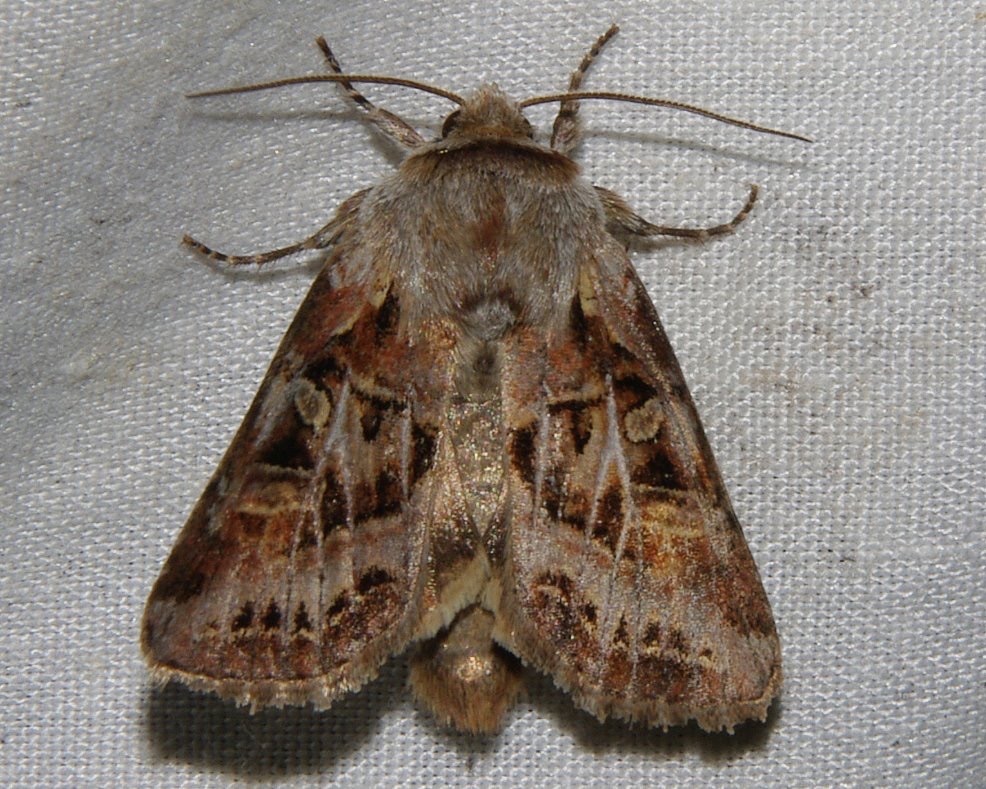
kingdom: Animalia
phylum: Arthropoda
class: Insecta
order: Lepidoptera
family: Noctuidae
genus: Trichordestra
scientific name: Trichordestra rugosa
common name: Wrinkled trichordestra
